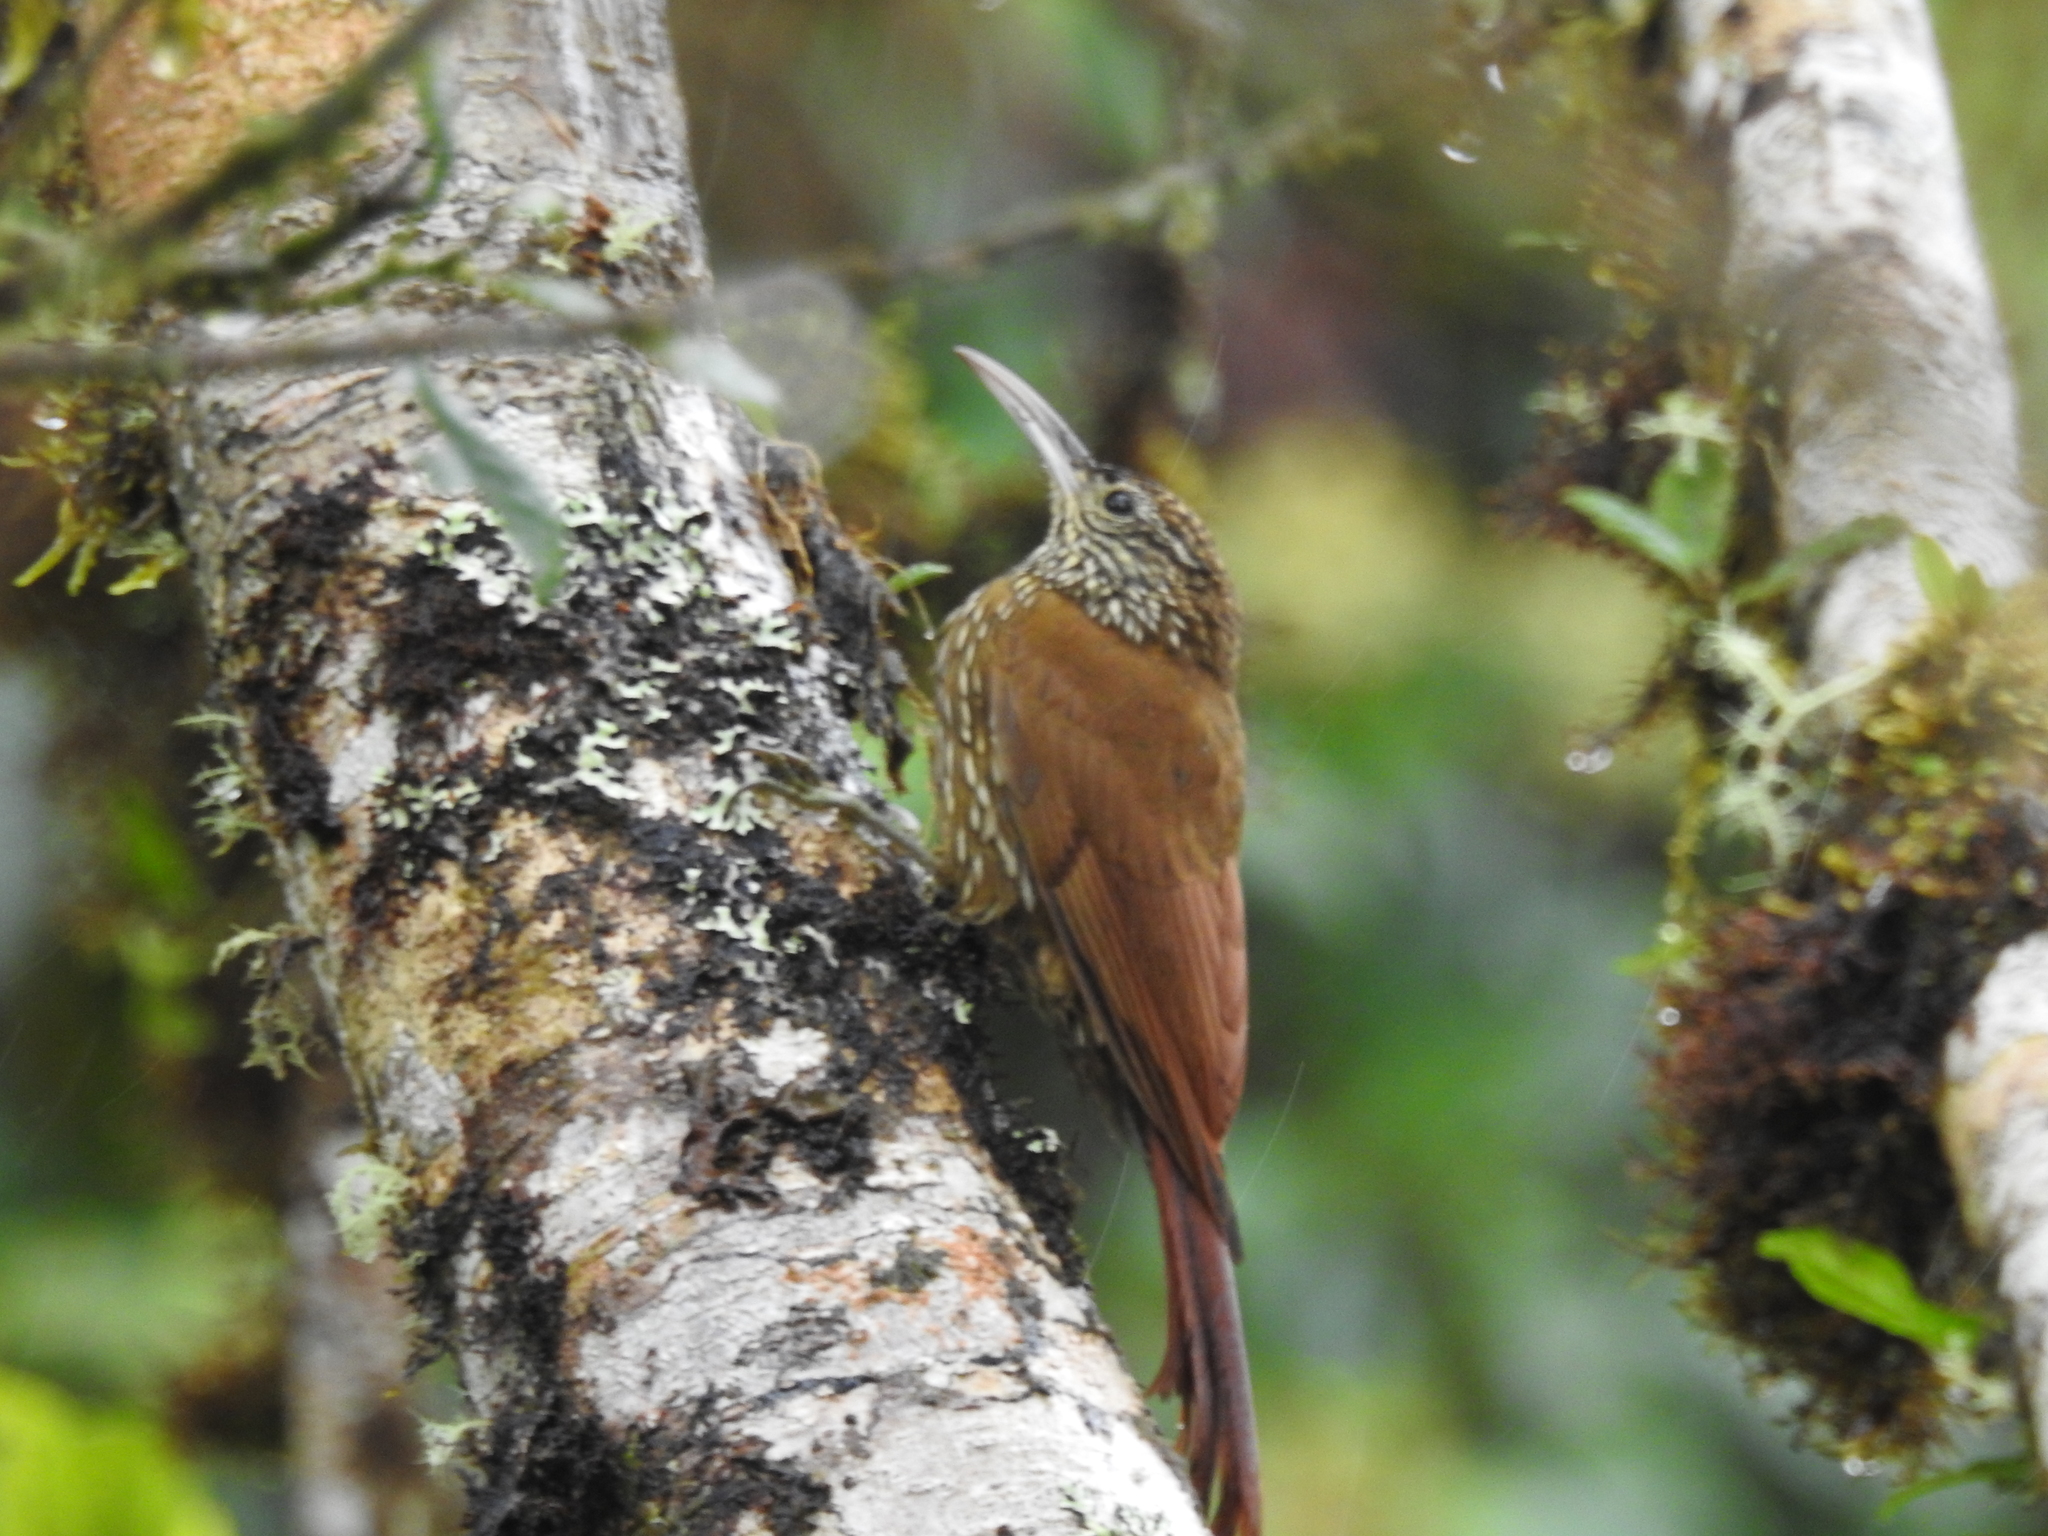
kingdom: Animalia
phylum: Chordata
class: Aves
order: Passeriformes
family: Furnariidae
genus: Lepidocolaptes
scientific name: Lepidocolaptes lacrymiger
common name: Montane woodcreeper
